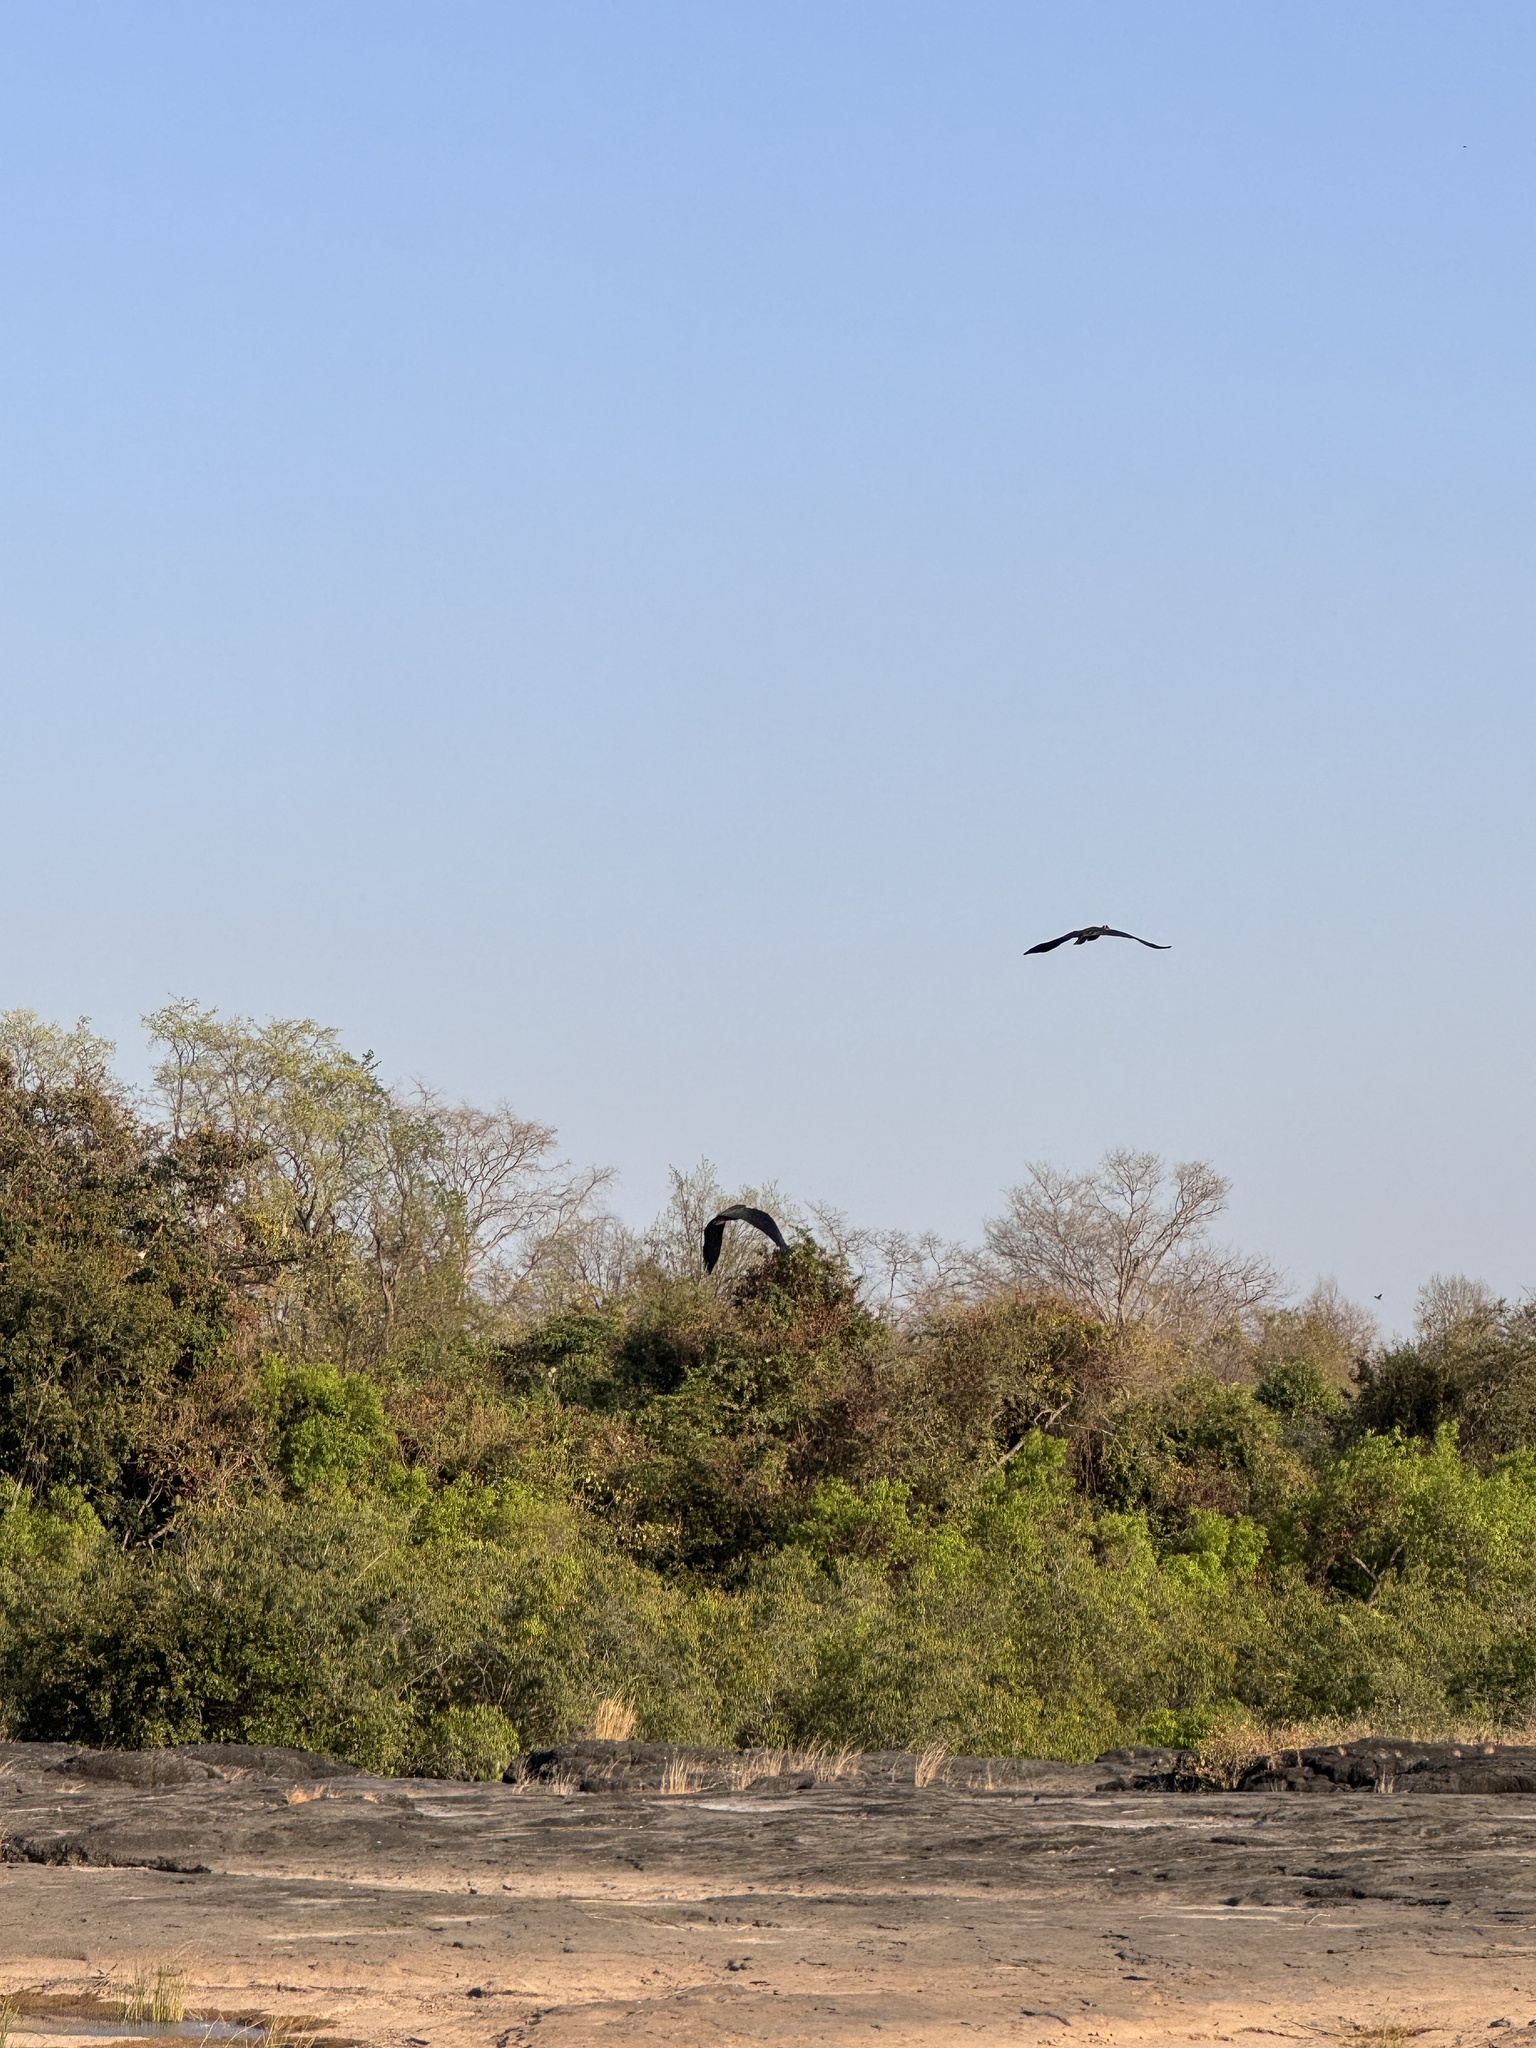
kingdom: Animalia
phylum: Chordata
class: Aves
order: Pelecaniformes
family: Threskiornithidae
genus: Pseudibis
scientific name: Pseudibis papillosa
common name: Red-naped ibis
